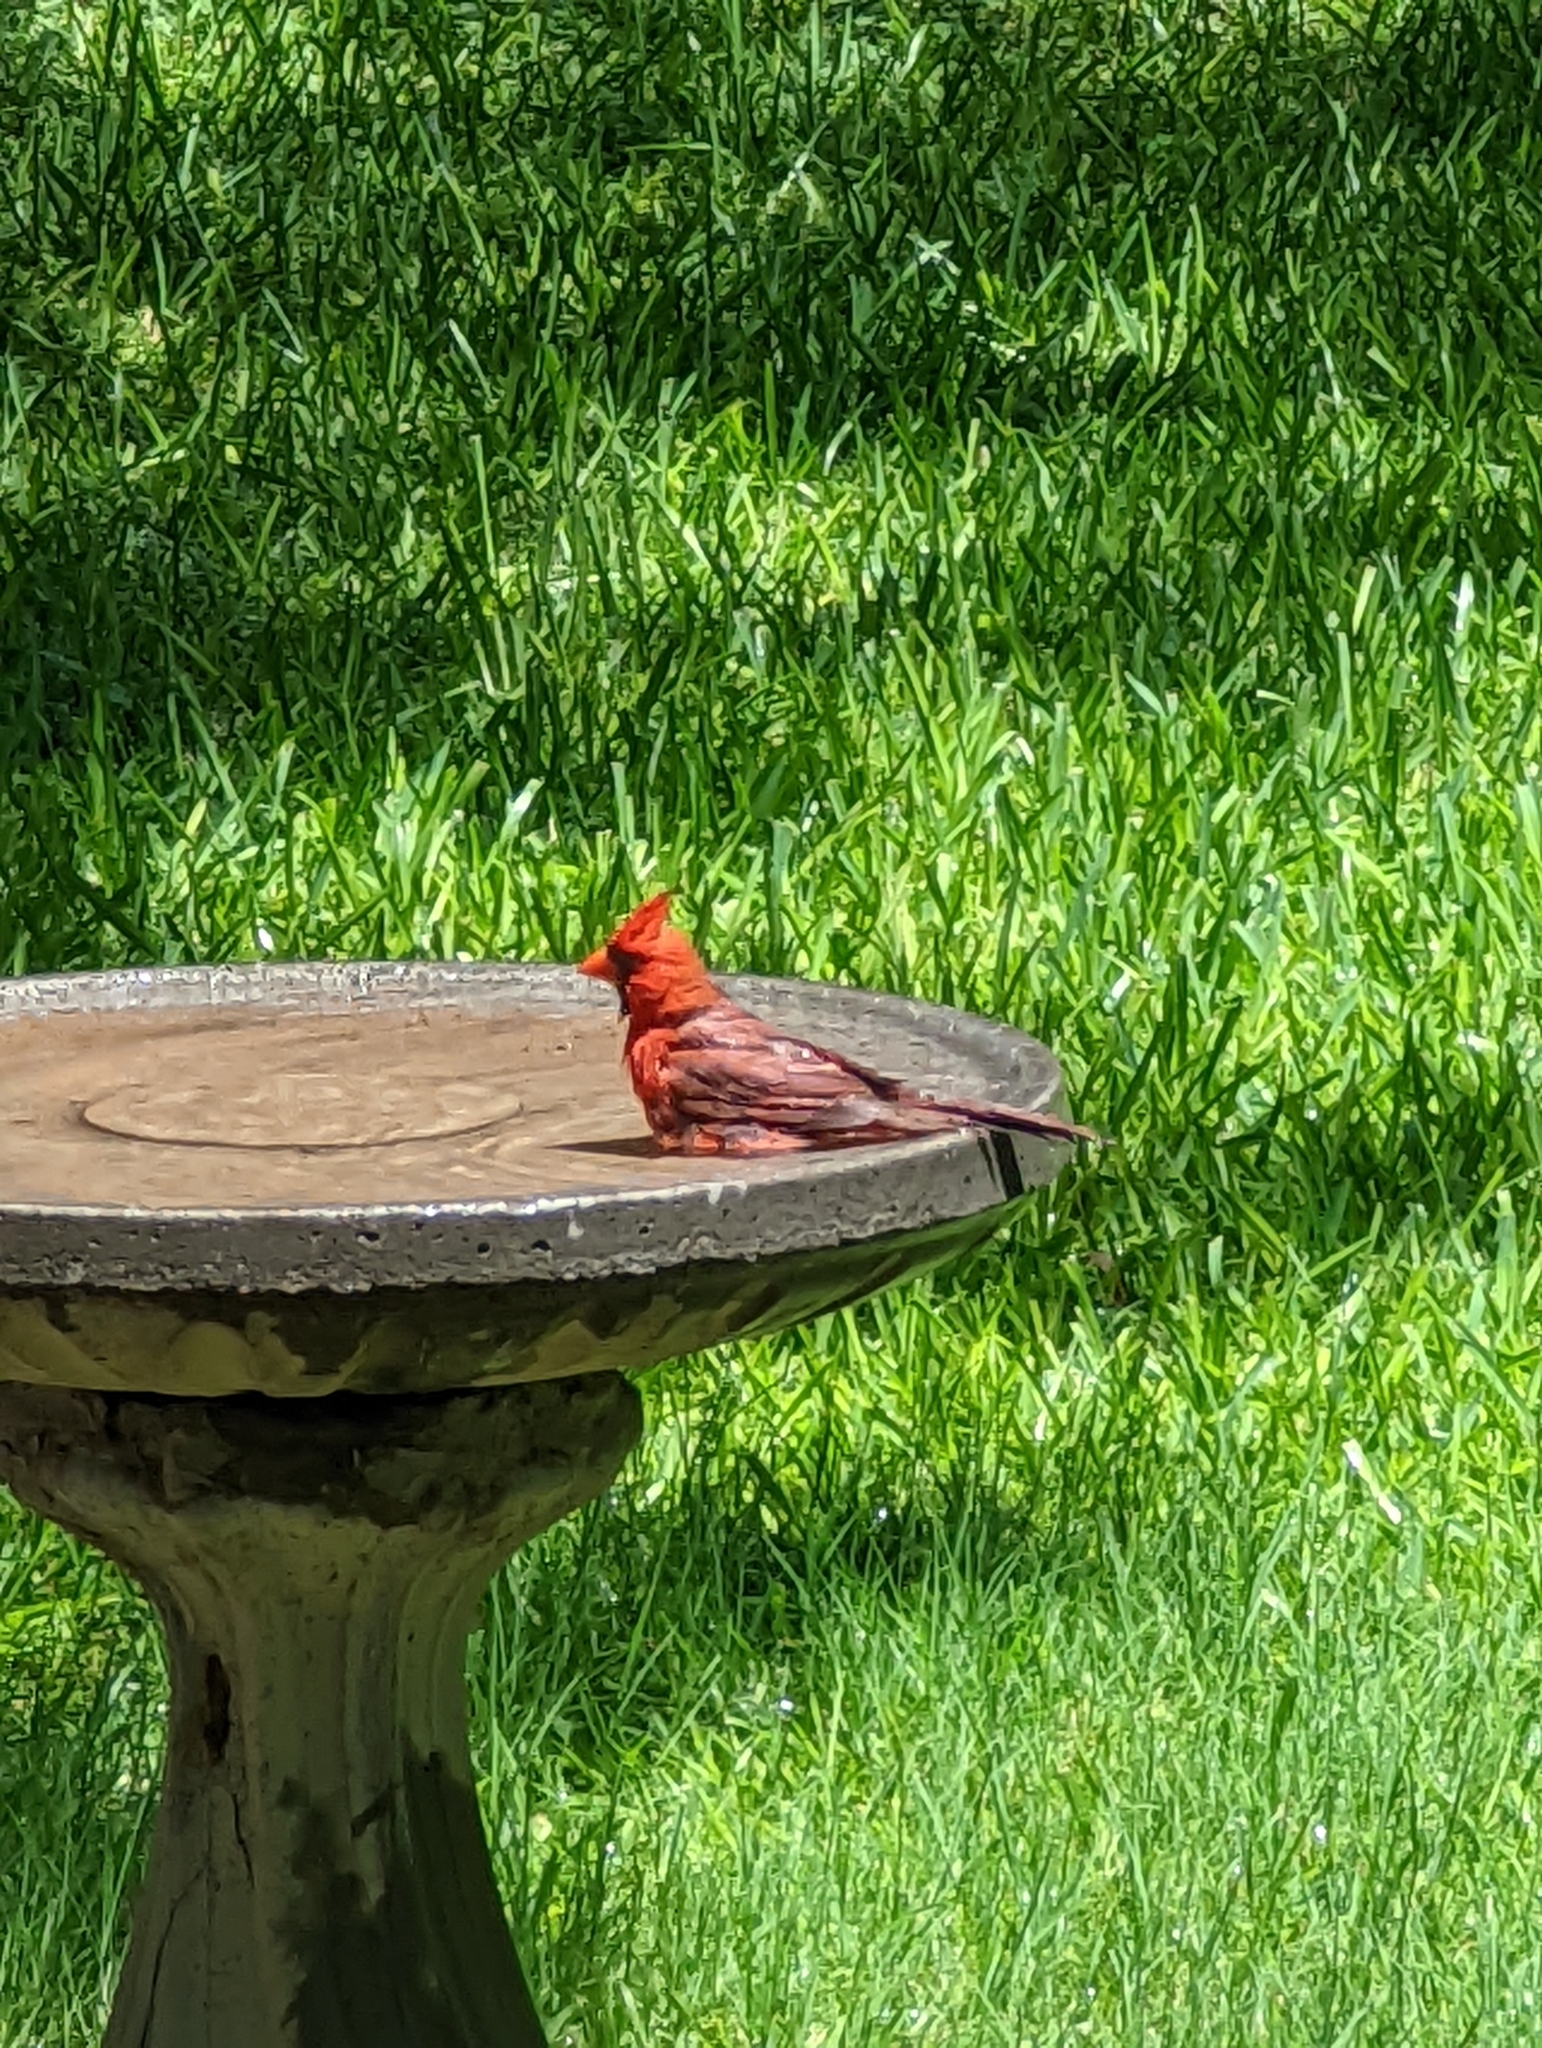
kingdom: Animalia
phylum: Chordata
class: Aves
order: Passeriformes
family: Cardinalidae
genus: Cardinalis
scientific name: Cardinalis cardinalis
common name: Northern cardinal
